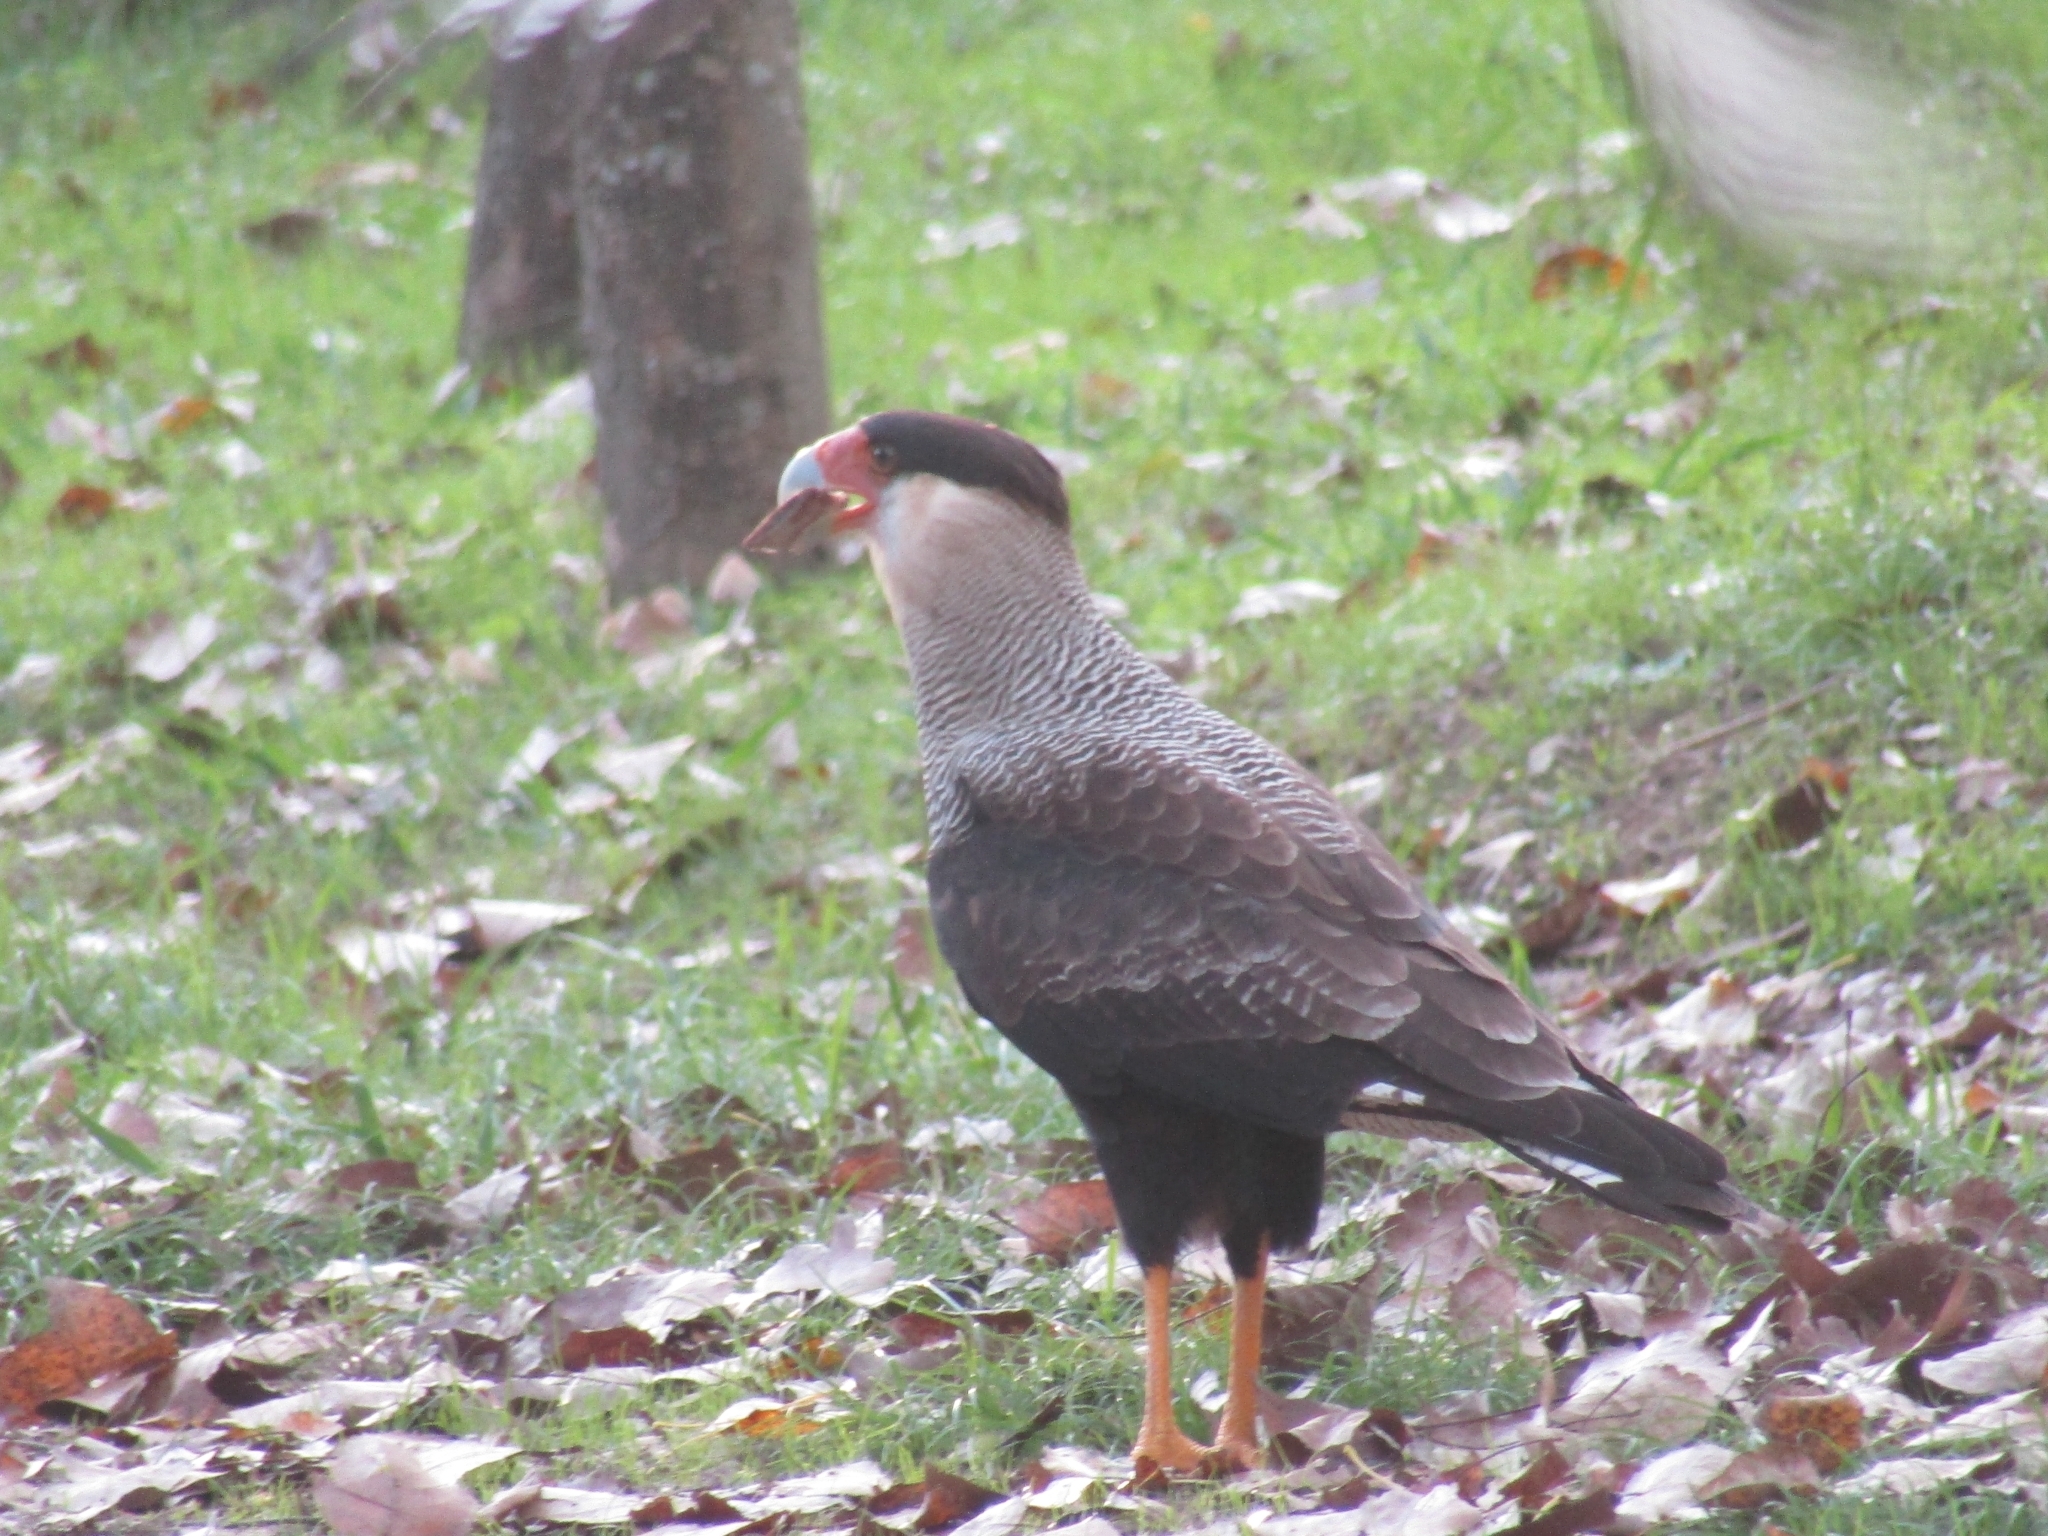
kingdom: Animalia
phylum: Chordata
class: Aves
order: Falconiformes
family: Falconidae
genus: Caracara
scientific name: Caracara plancus
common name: Southern caracara
